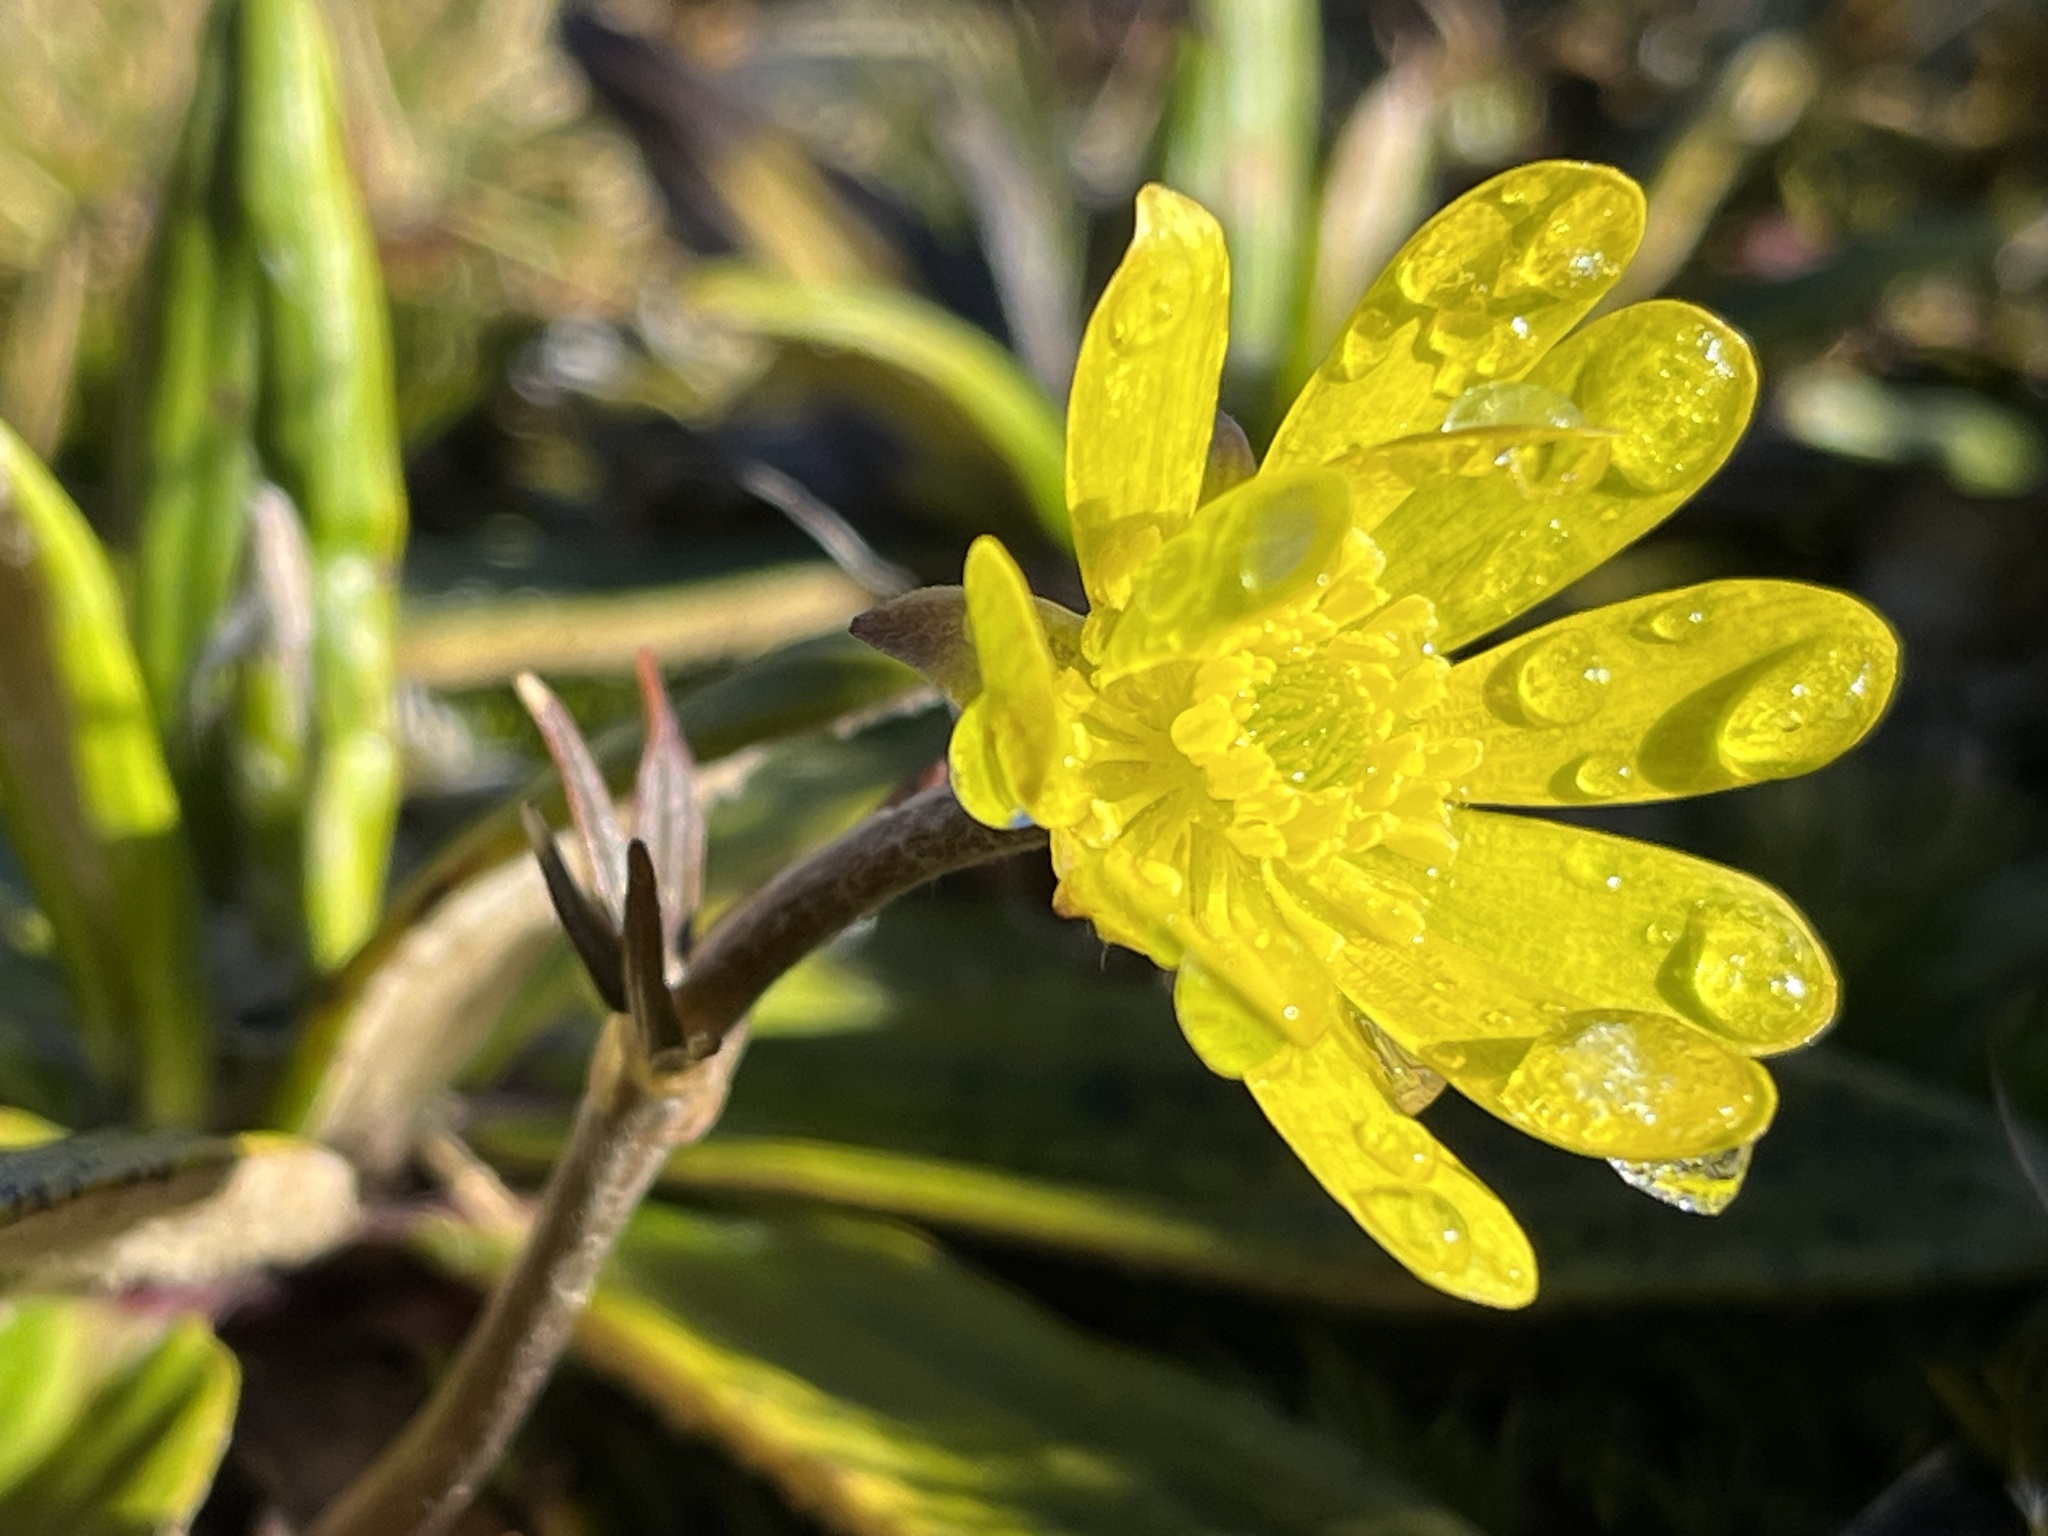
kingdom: Plantae
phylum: Tracheophyta
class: Magnoliopsida
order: Ranunculales
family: Ranunculaceae
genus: Ranunculus
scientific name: Ranunculus verticillatus
